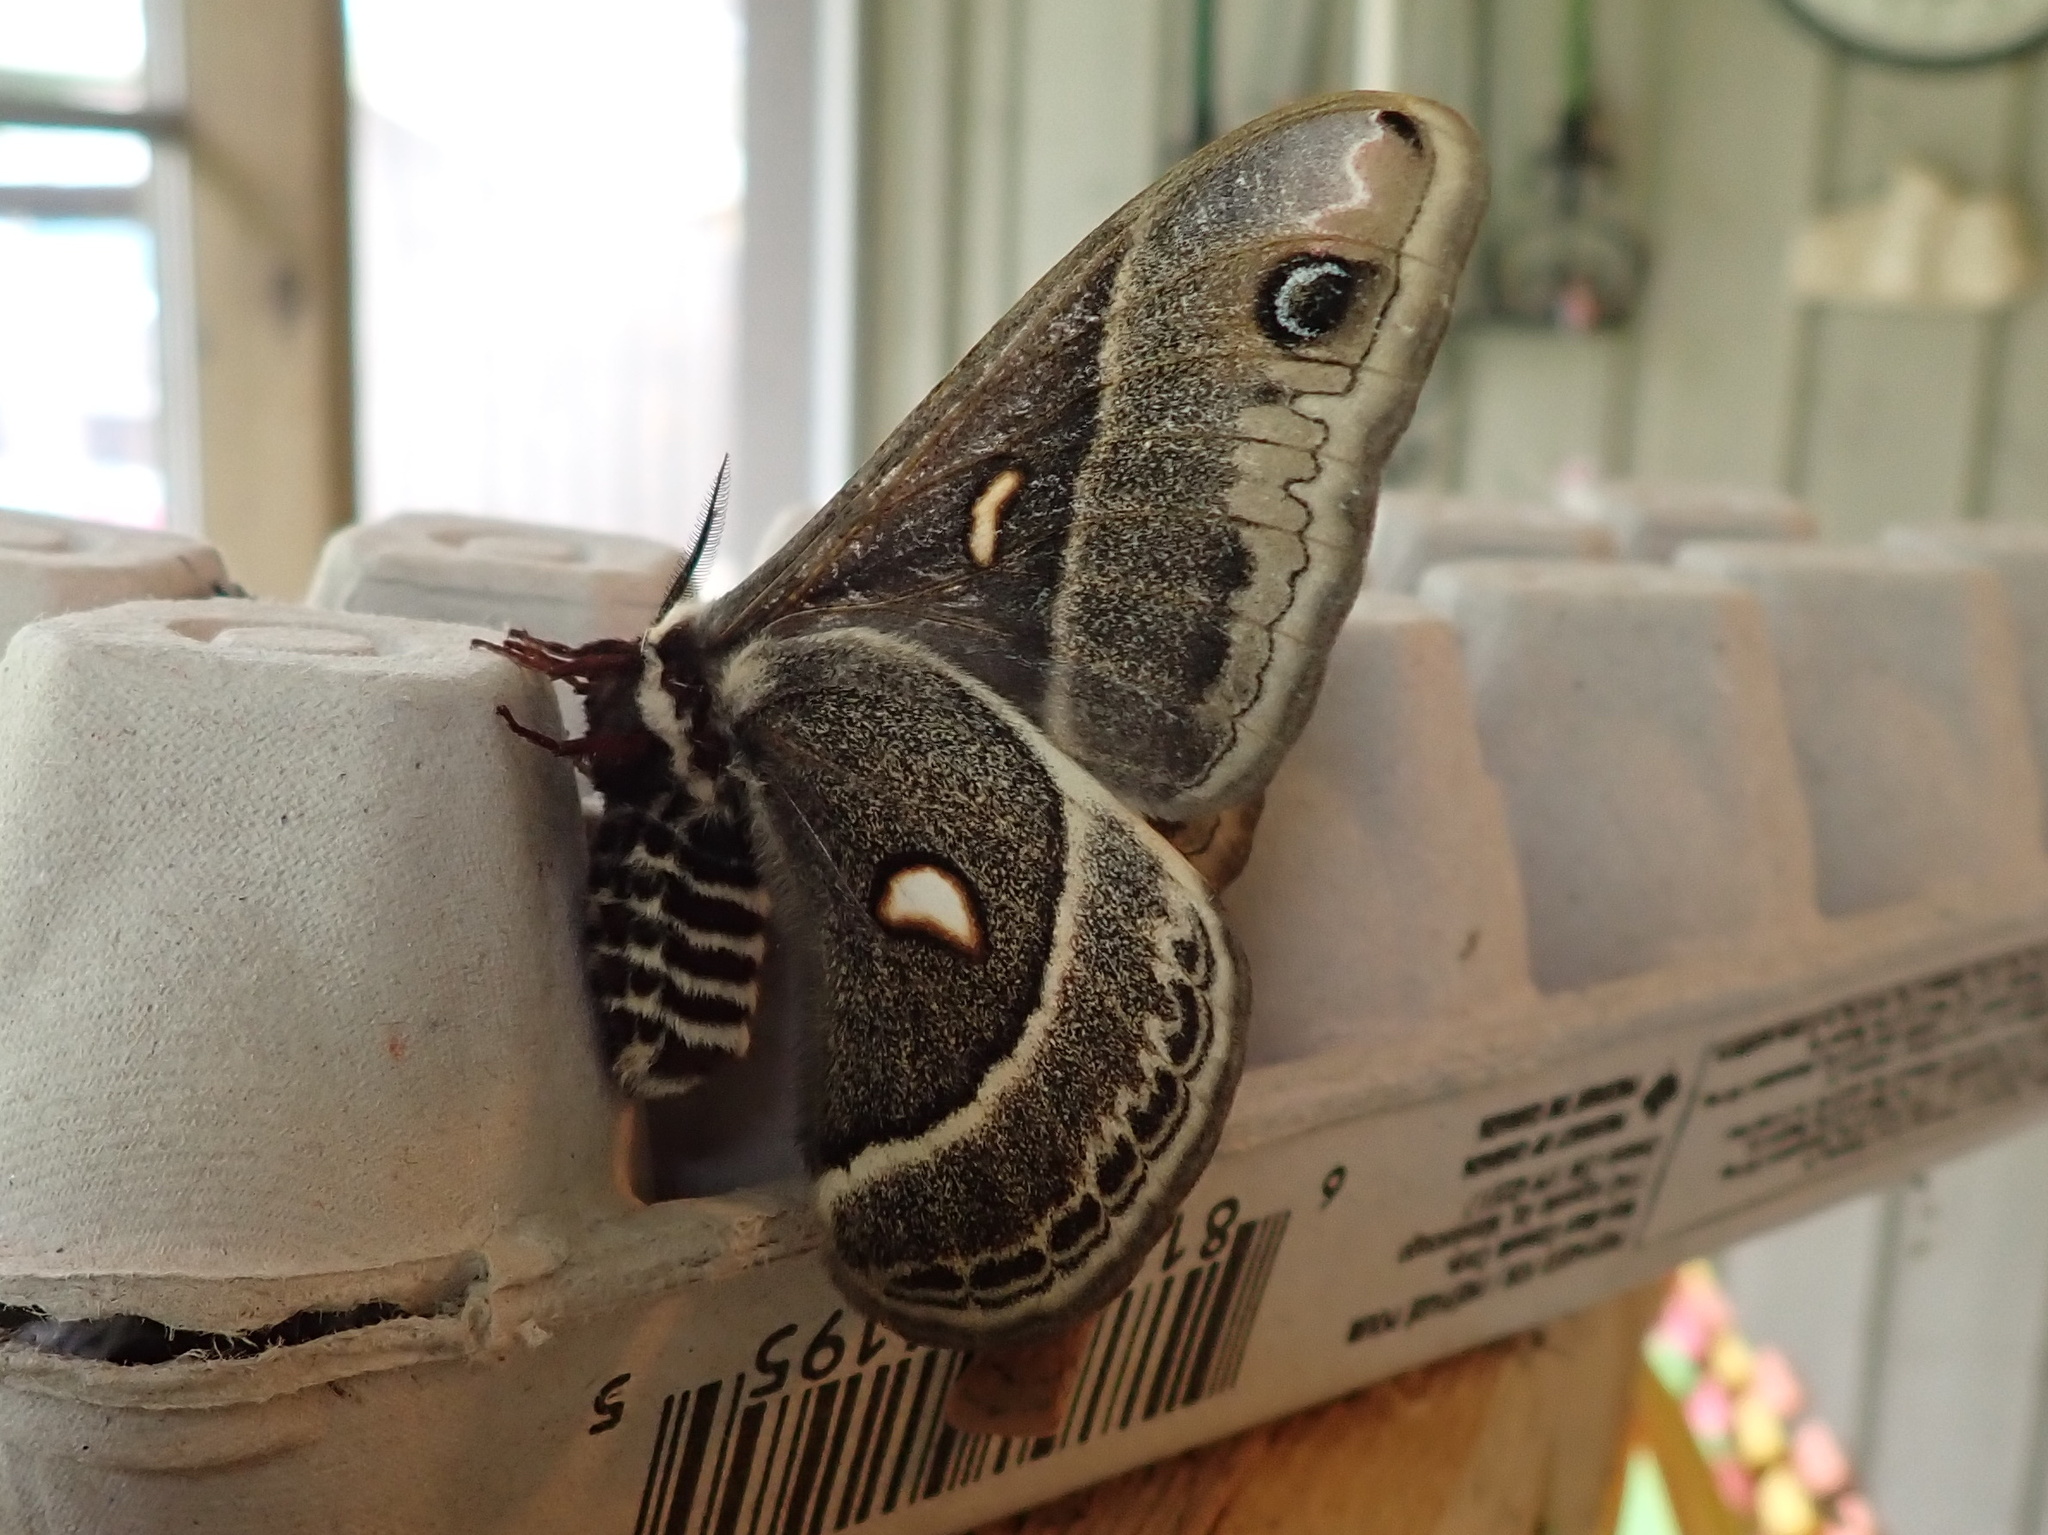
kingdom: Animalia
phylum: Arthropoda
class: Insecta
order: Lepidoptera
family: Saturniidae
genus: Hyalophora
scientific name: Hyalophora columbia
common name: Columbia silkmoth
